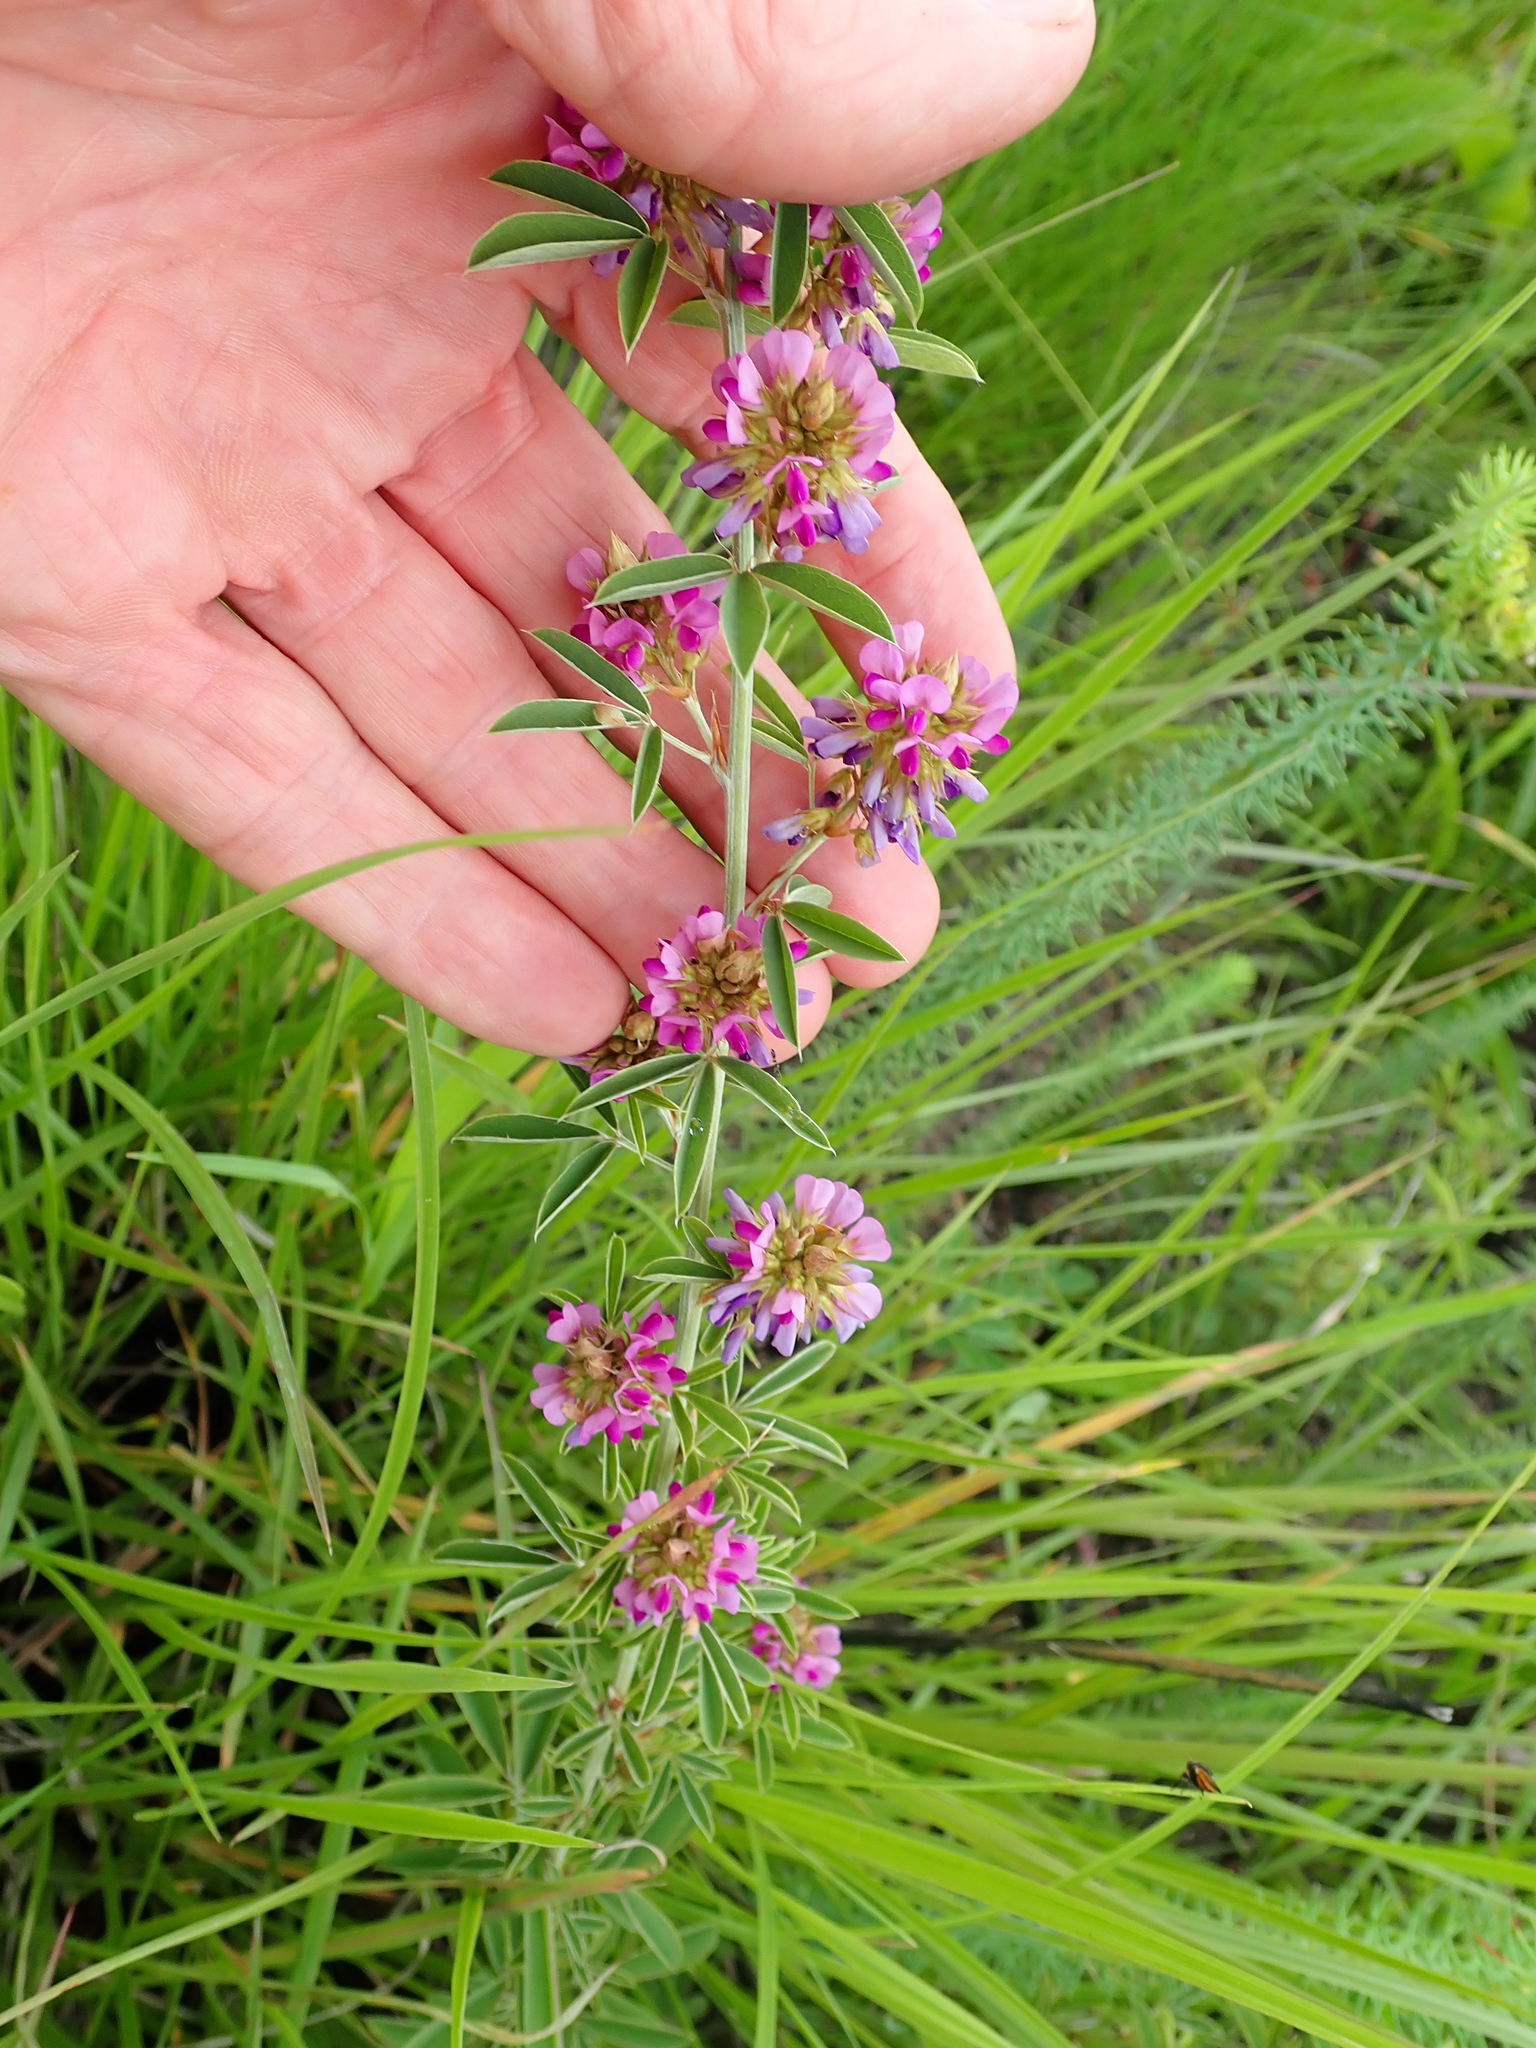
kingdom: Plantae
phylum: Tracheophyta
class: Magnoliopsida
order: Fabales
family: Fabaceae
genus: Grona
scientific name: Grona caffra
